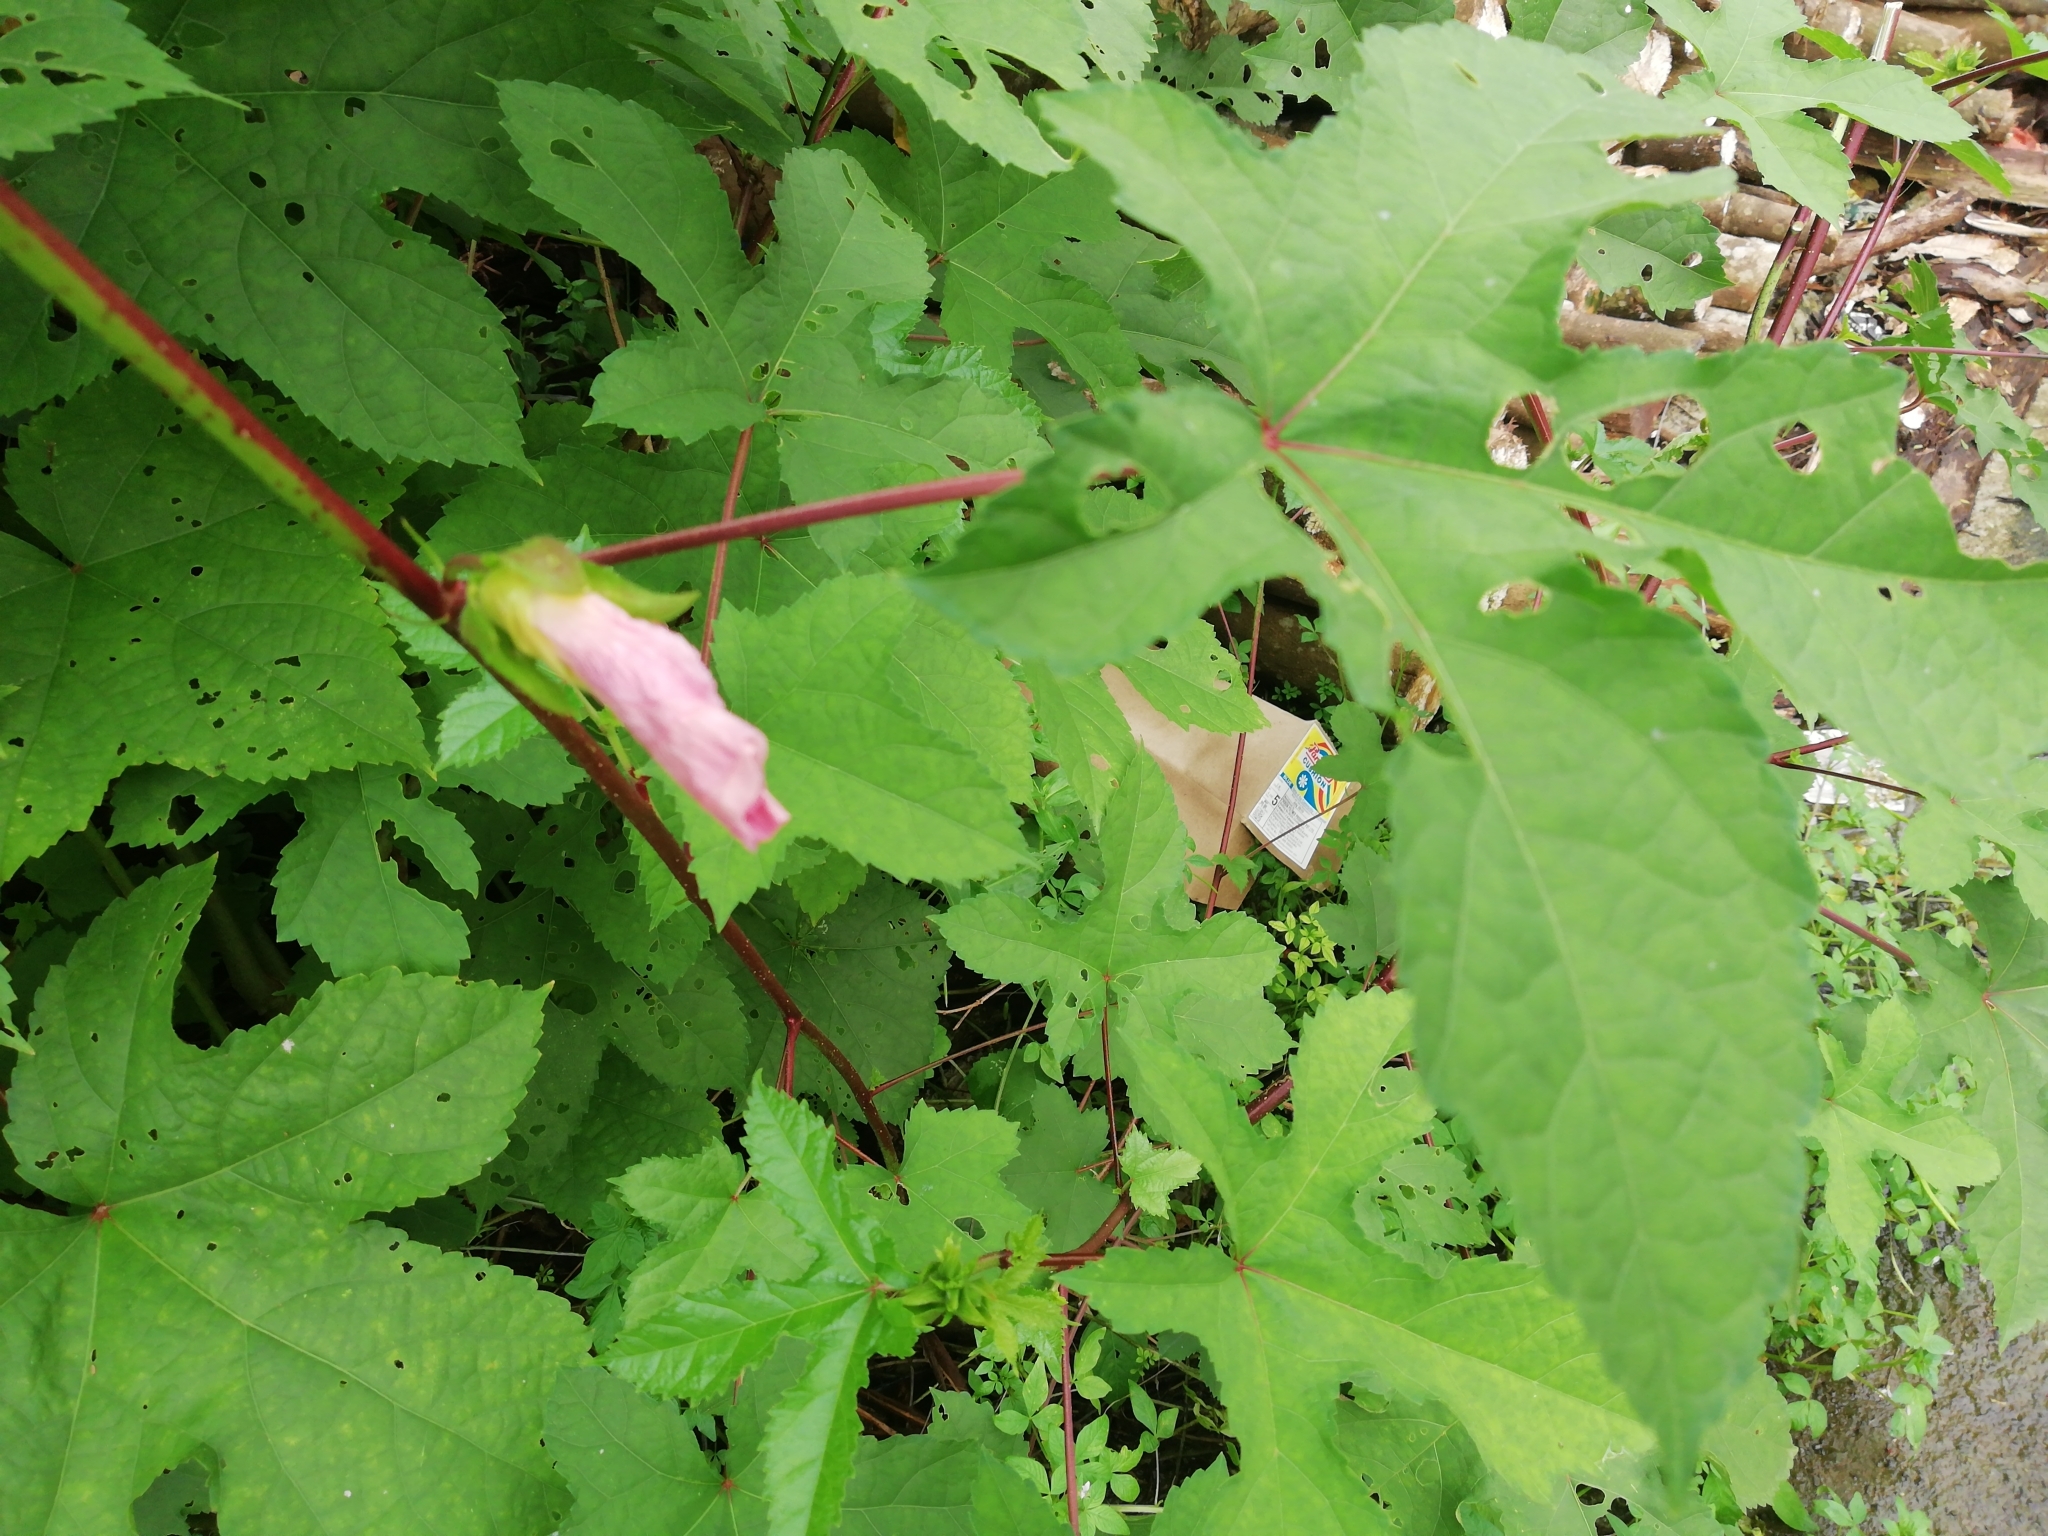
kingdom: Plantae
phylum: Tracheophyta
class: Magnoliopsida
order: Malvales
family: Malvaceae
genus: Abelmoschus
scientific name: Abelmoschus esculentus
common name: Okra
